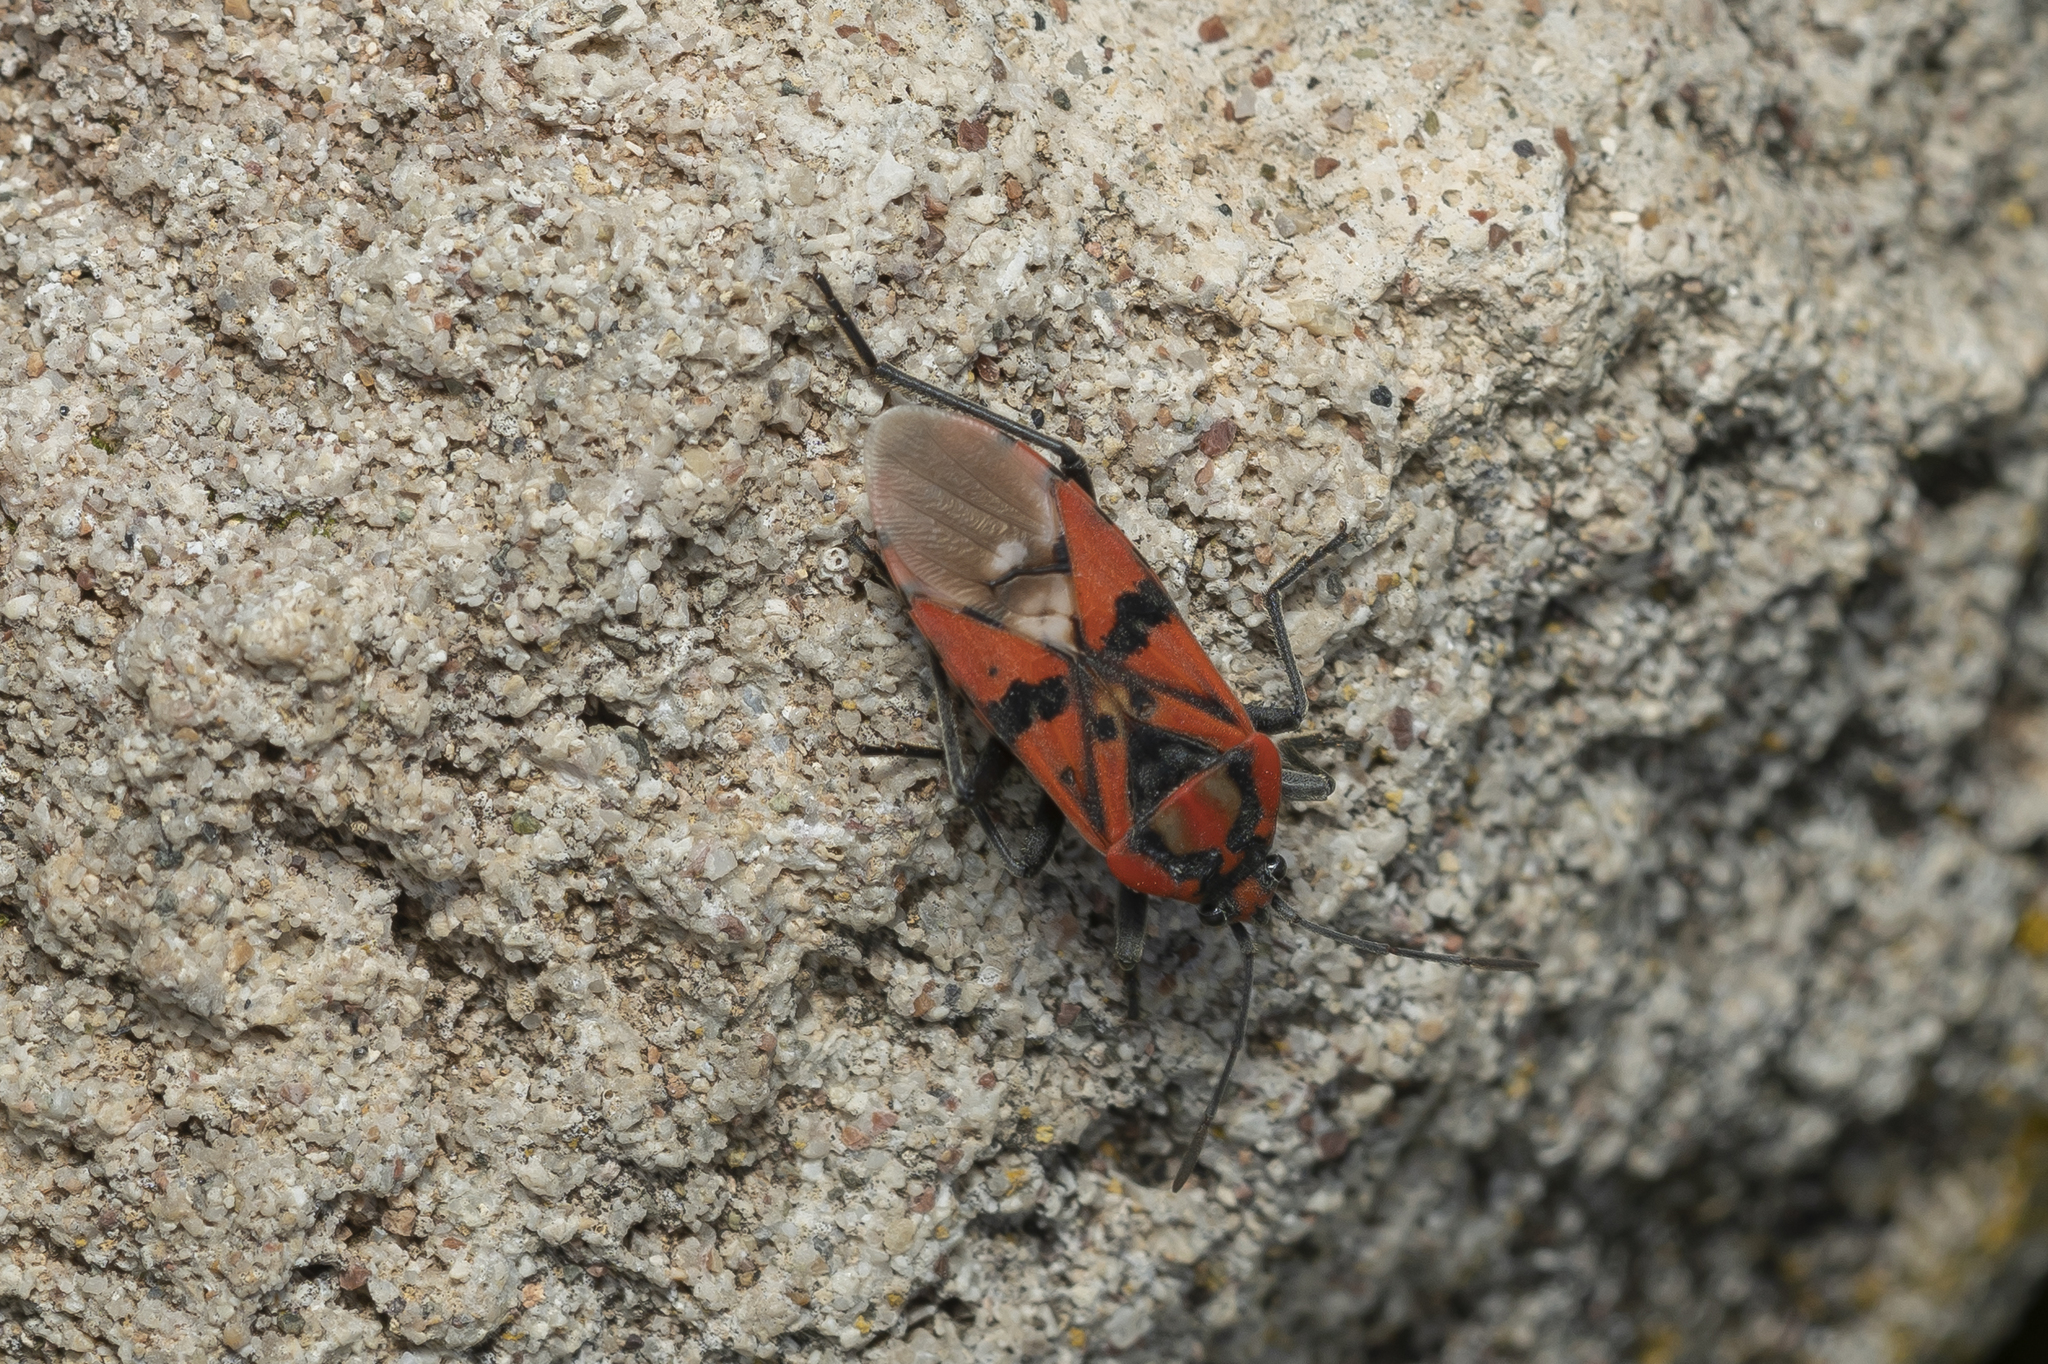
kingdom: Animalia
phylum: Arthropoda
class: Insecta
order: Hemiptera
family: Lygaeidae
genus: Spilostethus
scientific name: Spilostethus pandurus
